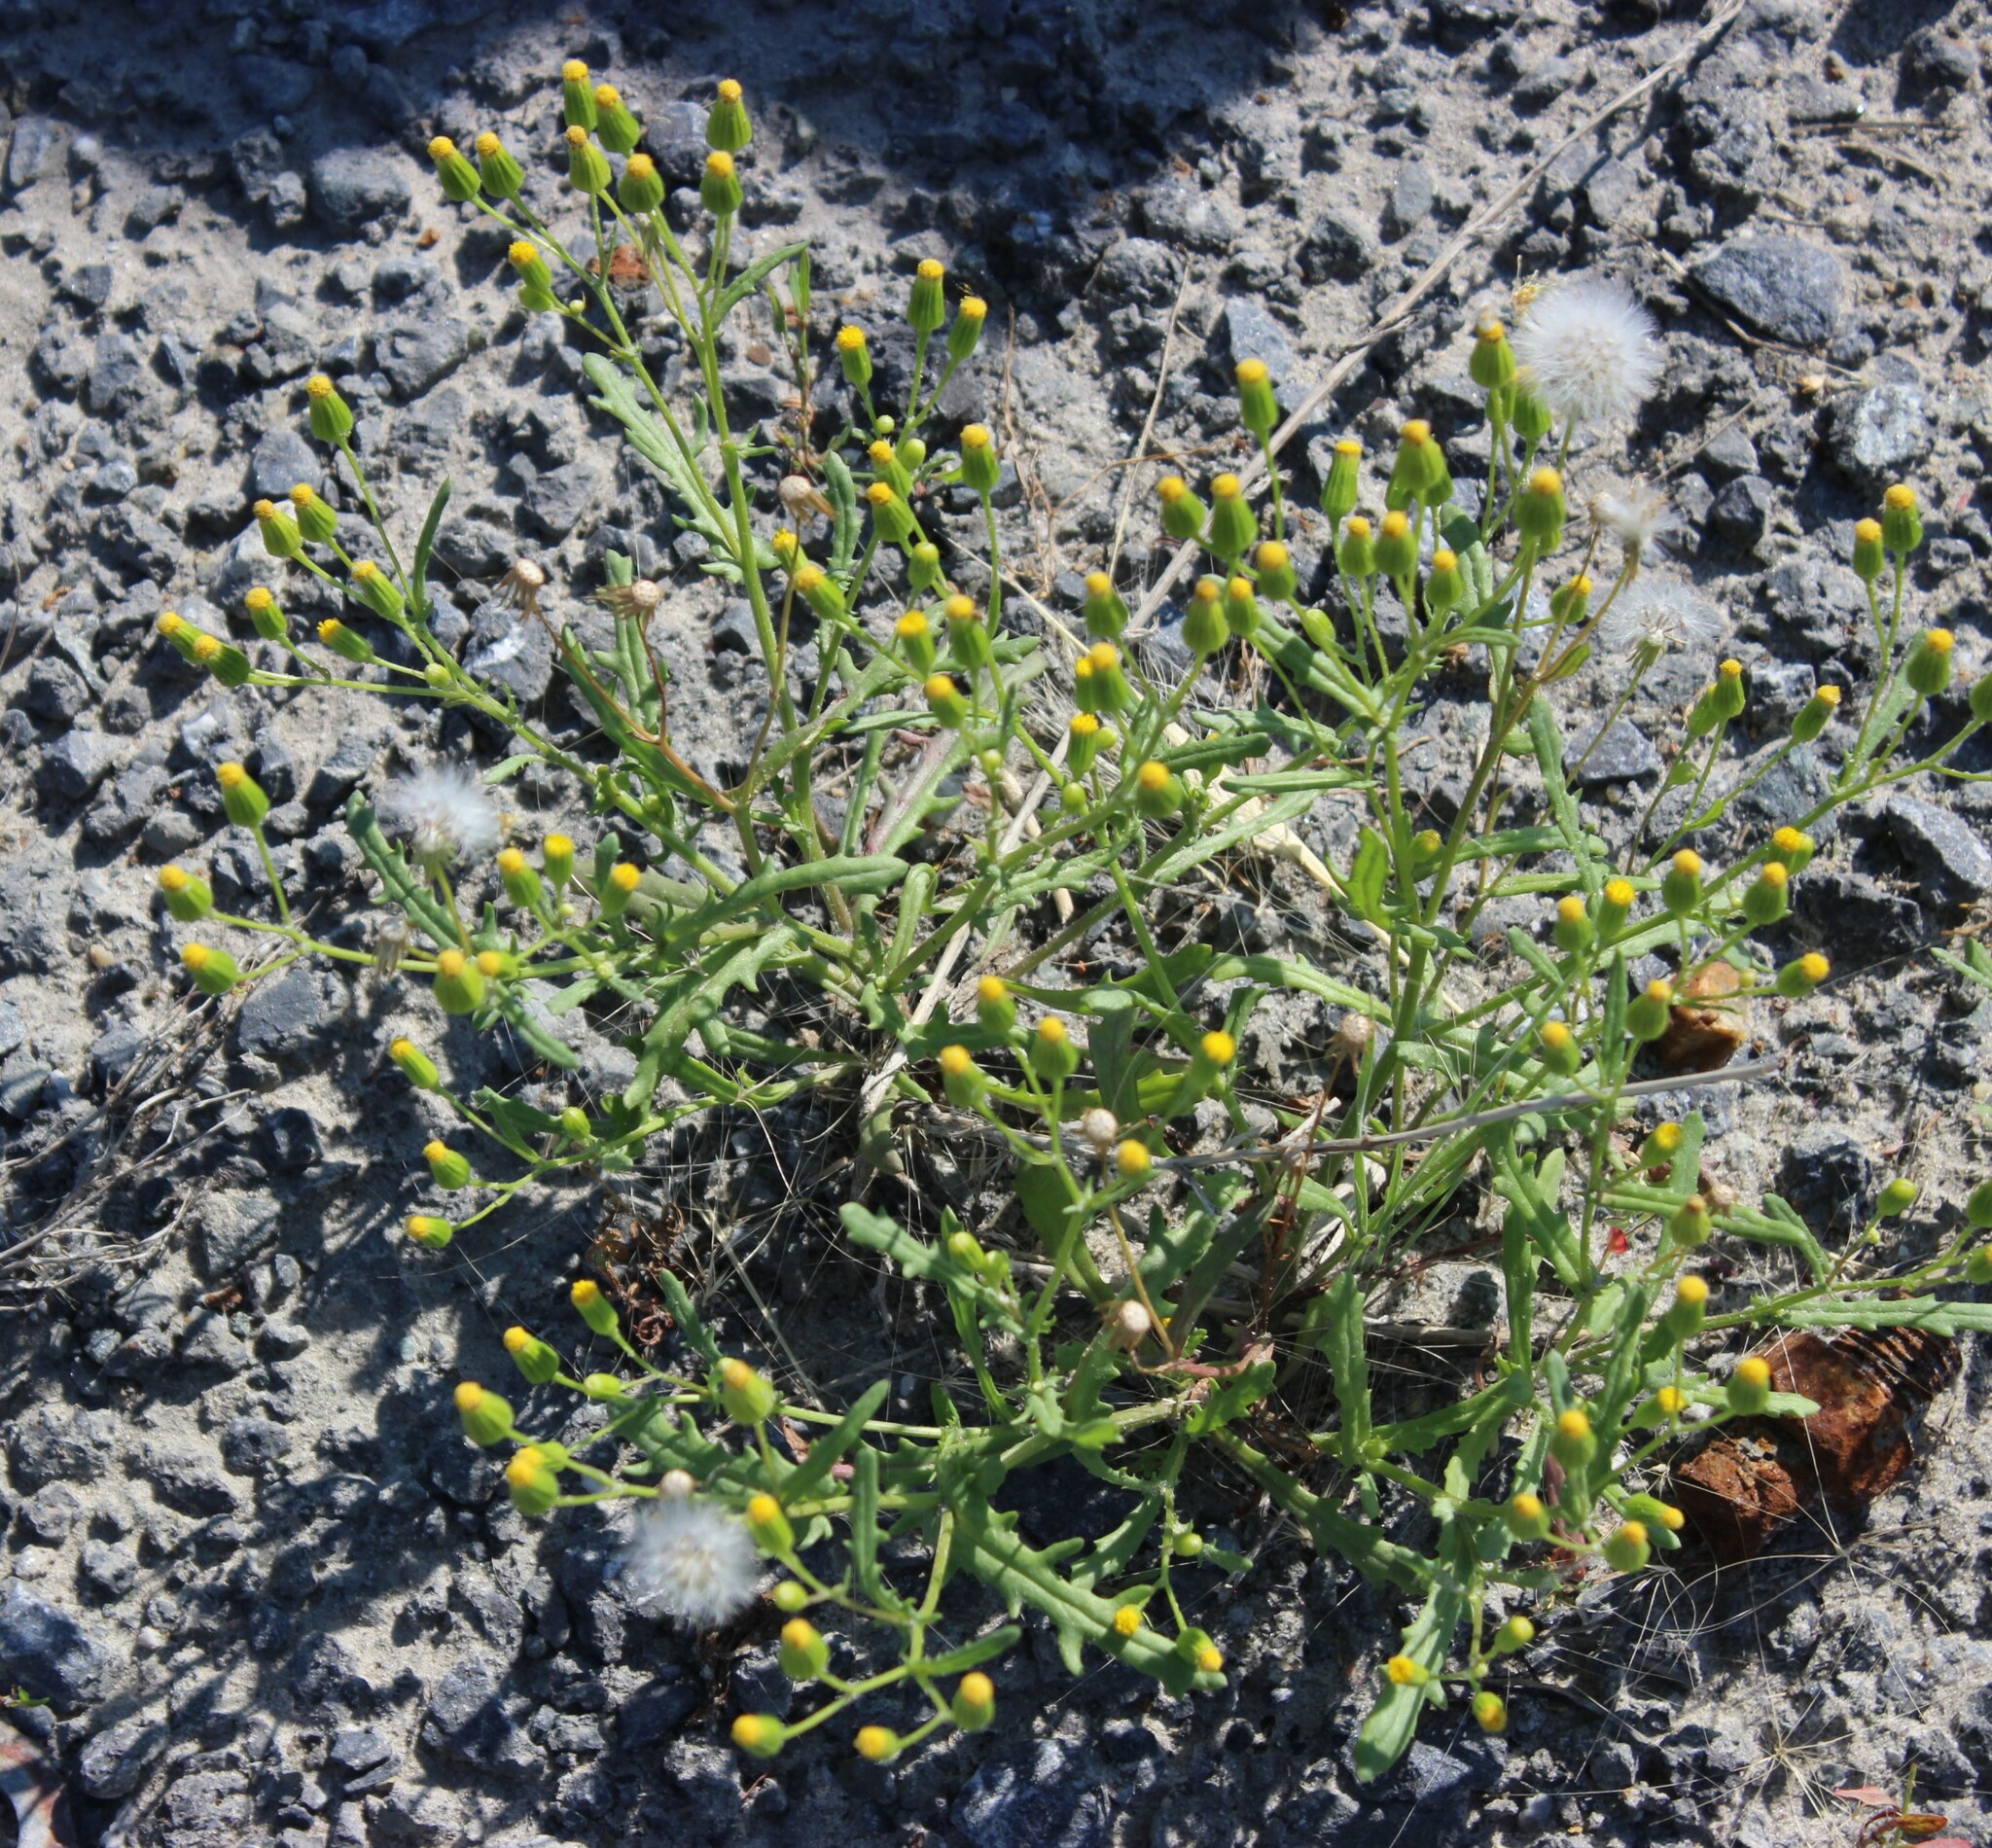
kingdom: Plantae
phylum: Tracheophyta
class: Magnoliopsida
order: Asterales
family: Asteraceae
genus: Senecio
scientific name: Senecio dubitabilis
